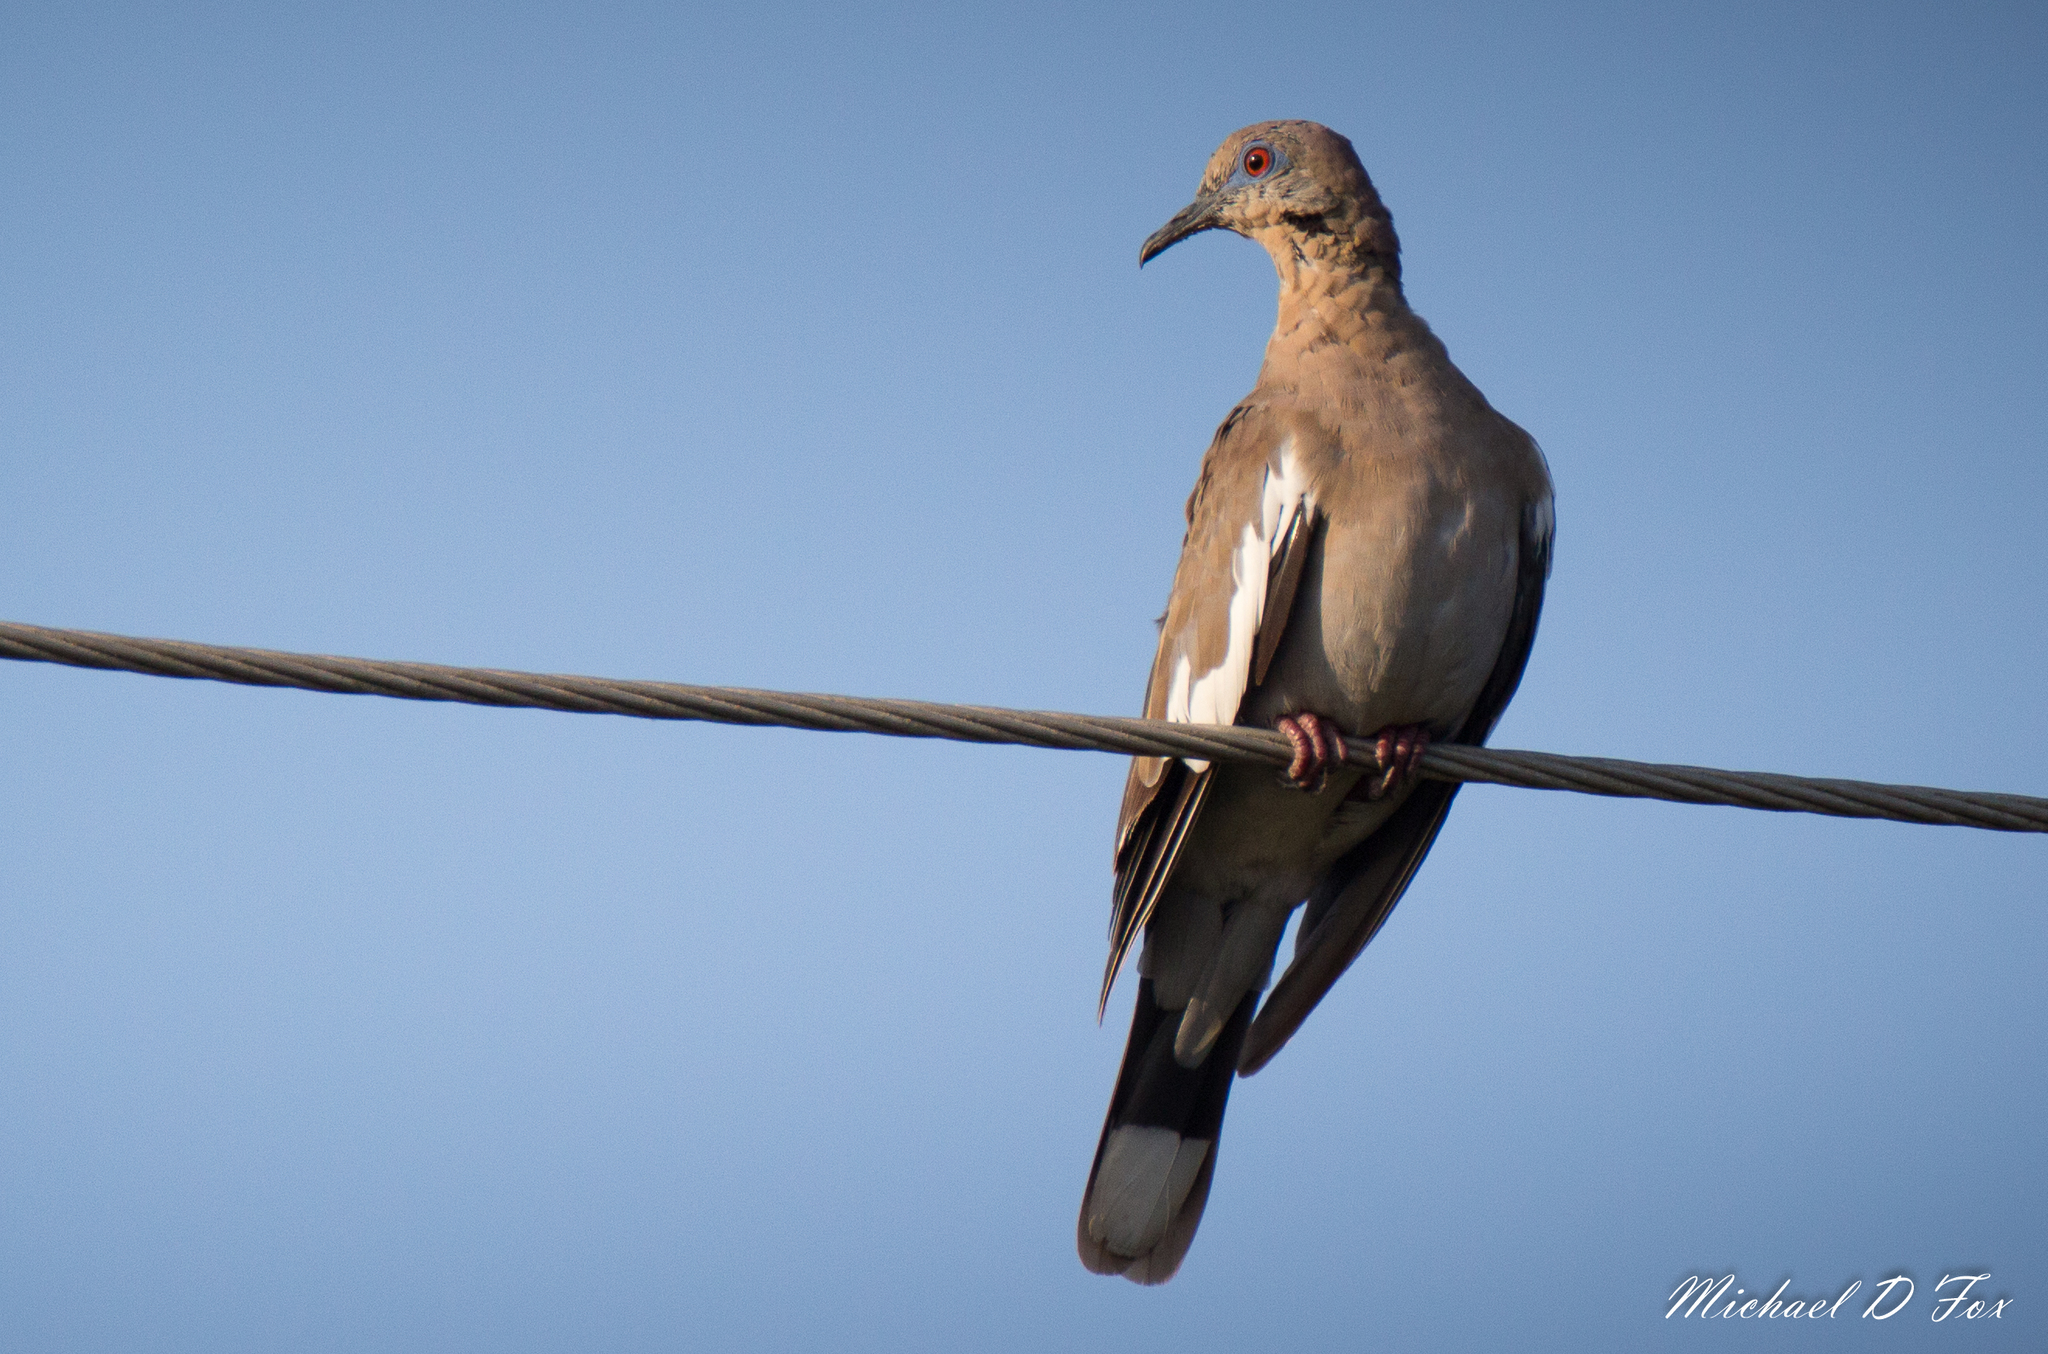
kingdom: Animalia
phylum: Chordata
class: Aves
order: Columbiformes
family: Columbidae
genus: Zenaida
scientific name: Zenaida asiatica
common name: White-winged dove
